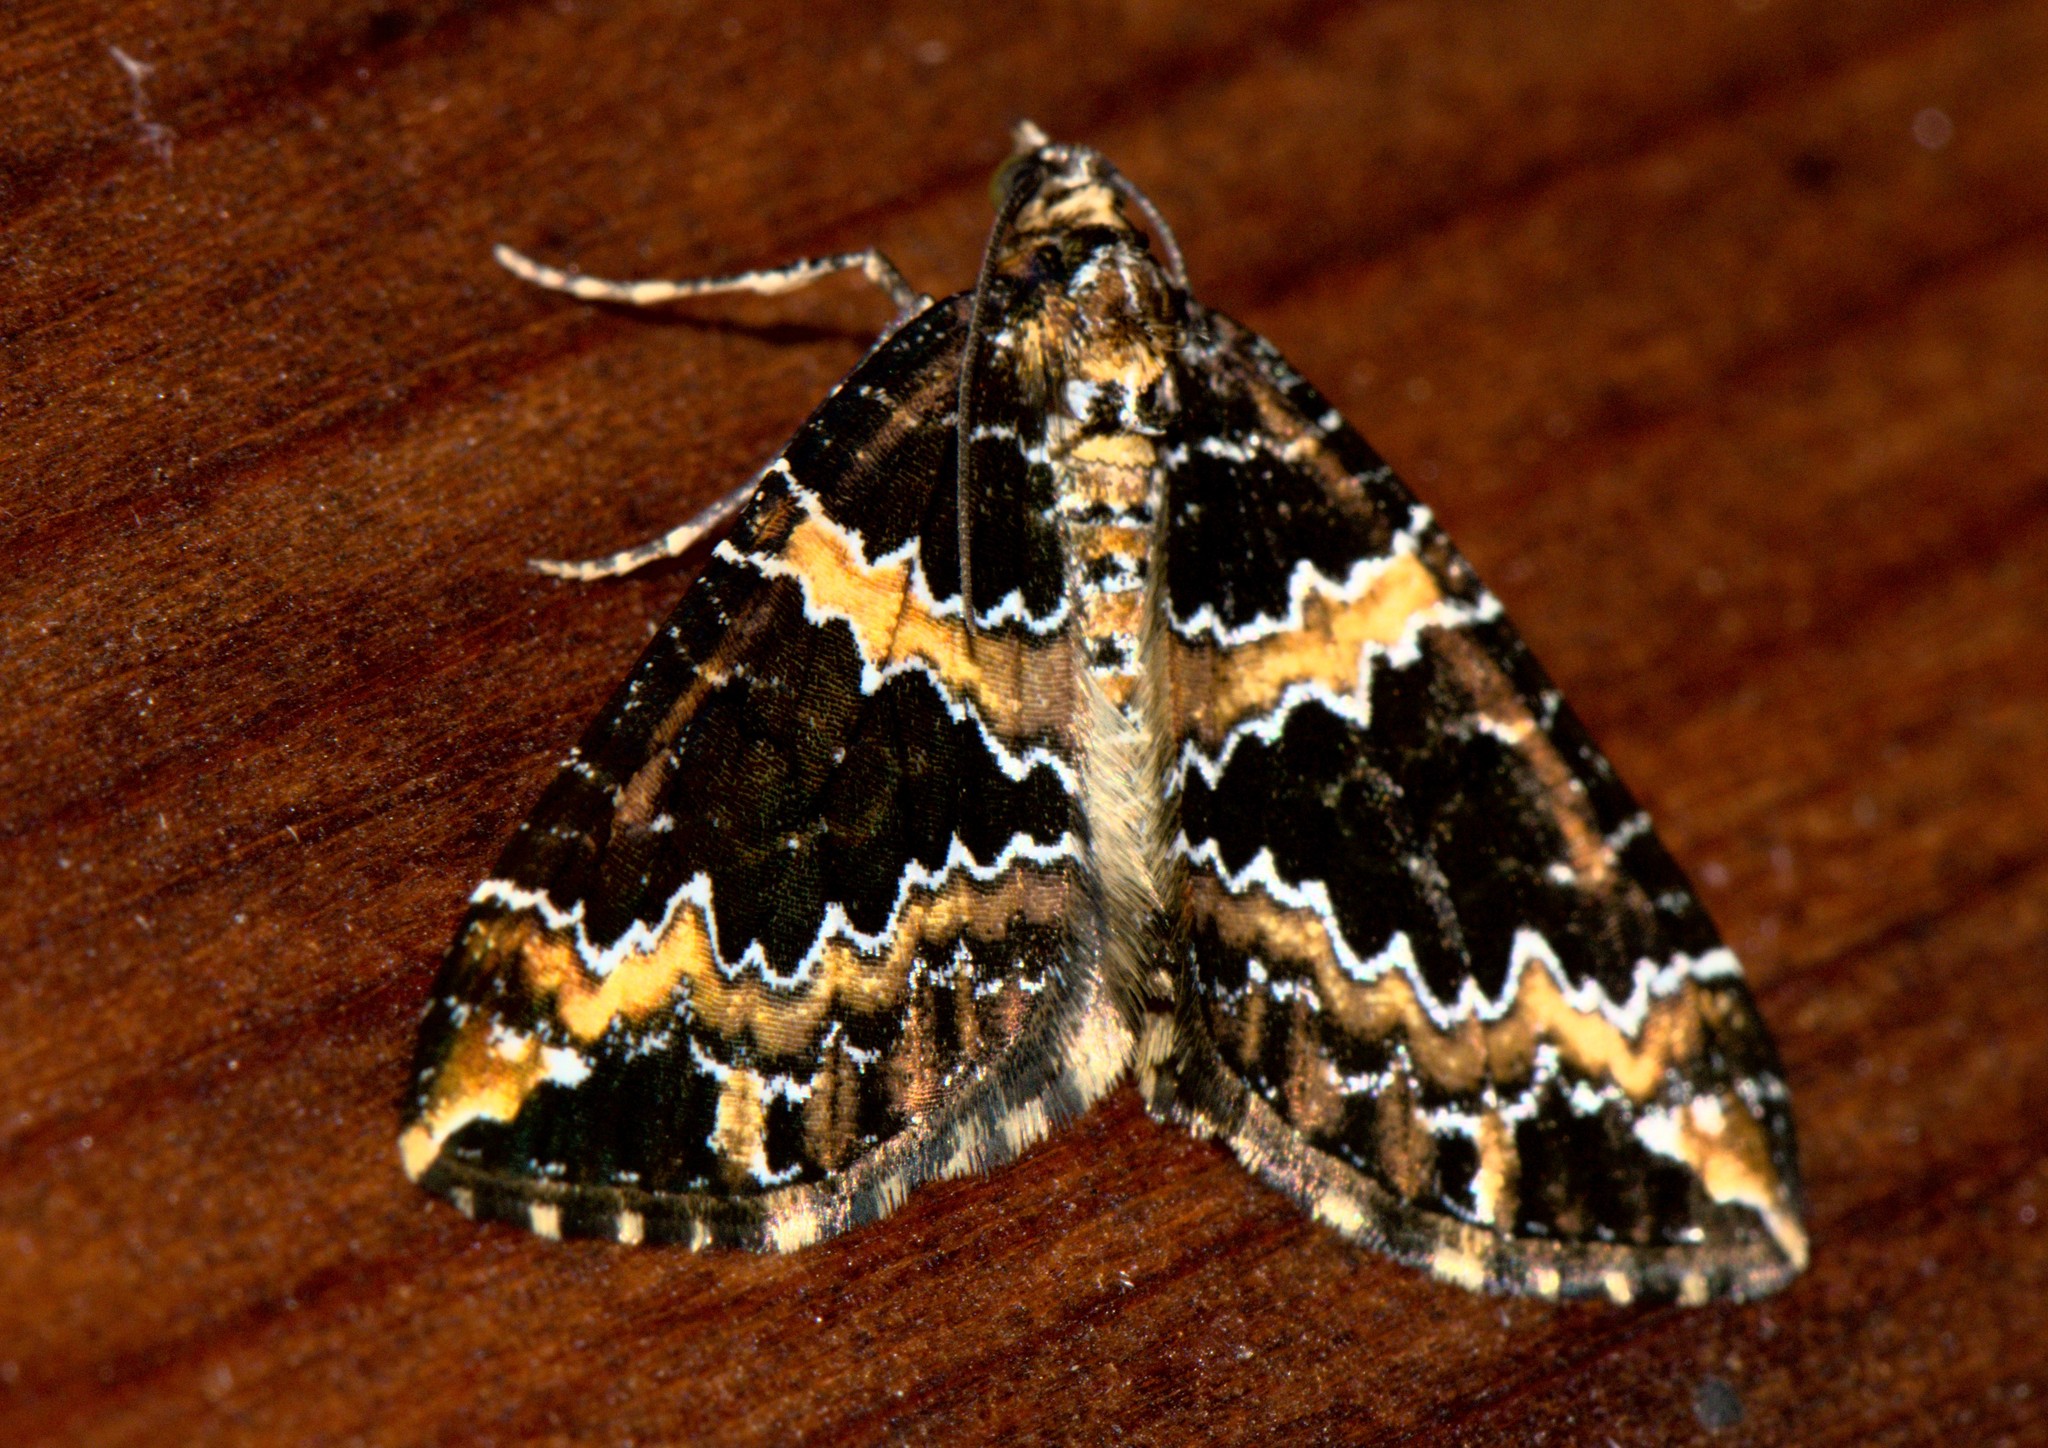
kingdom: Animalia
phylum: Arthropoda
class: Insecta
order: Lepidoptera
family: Geometridae
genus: Electrophaes
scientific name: Electrophaes marginata
